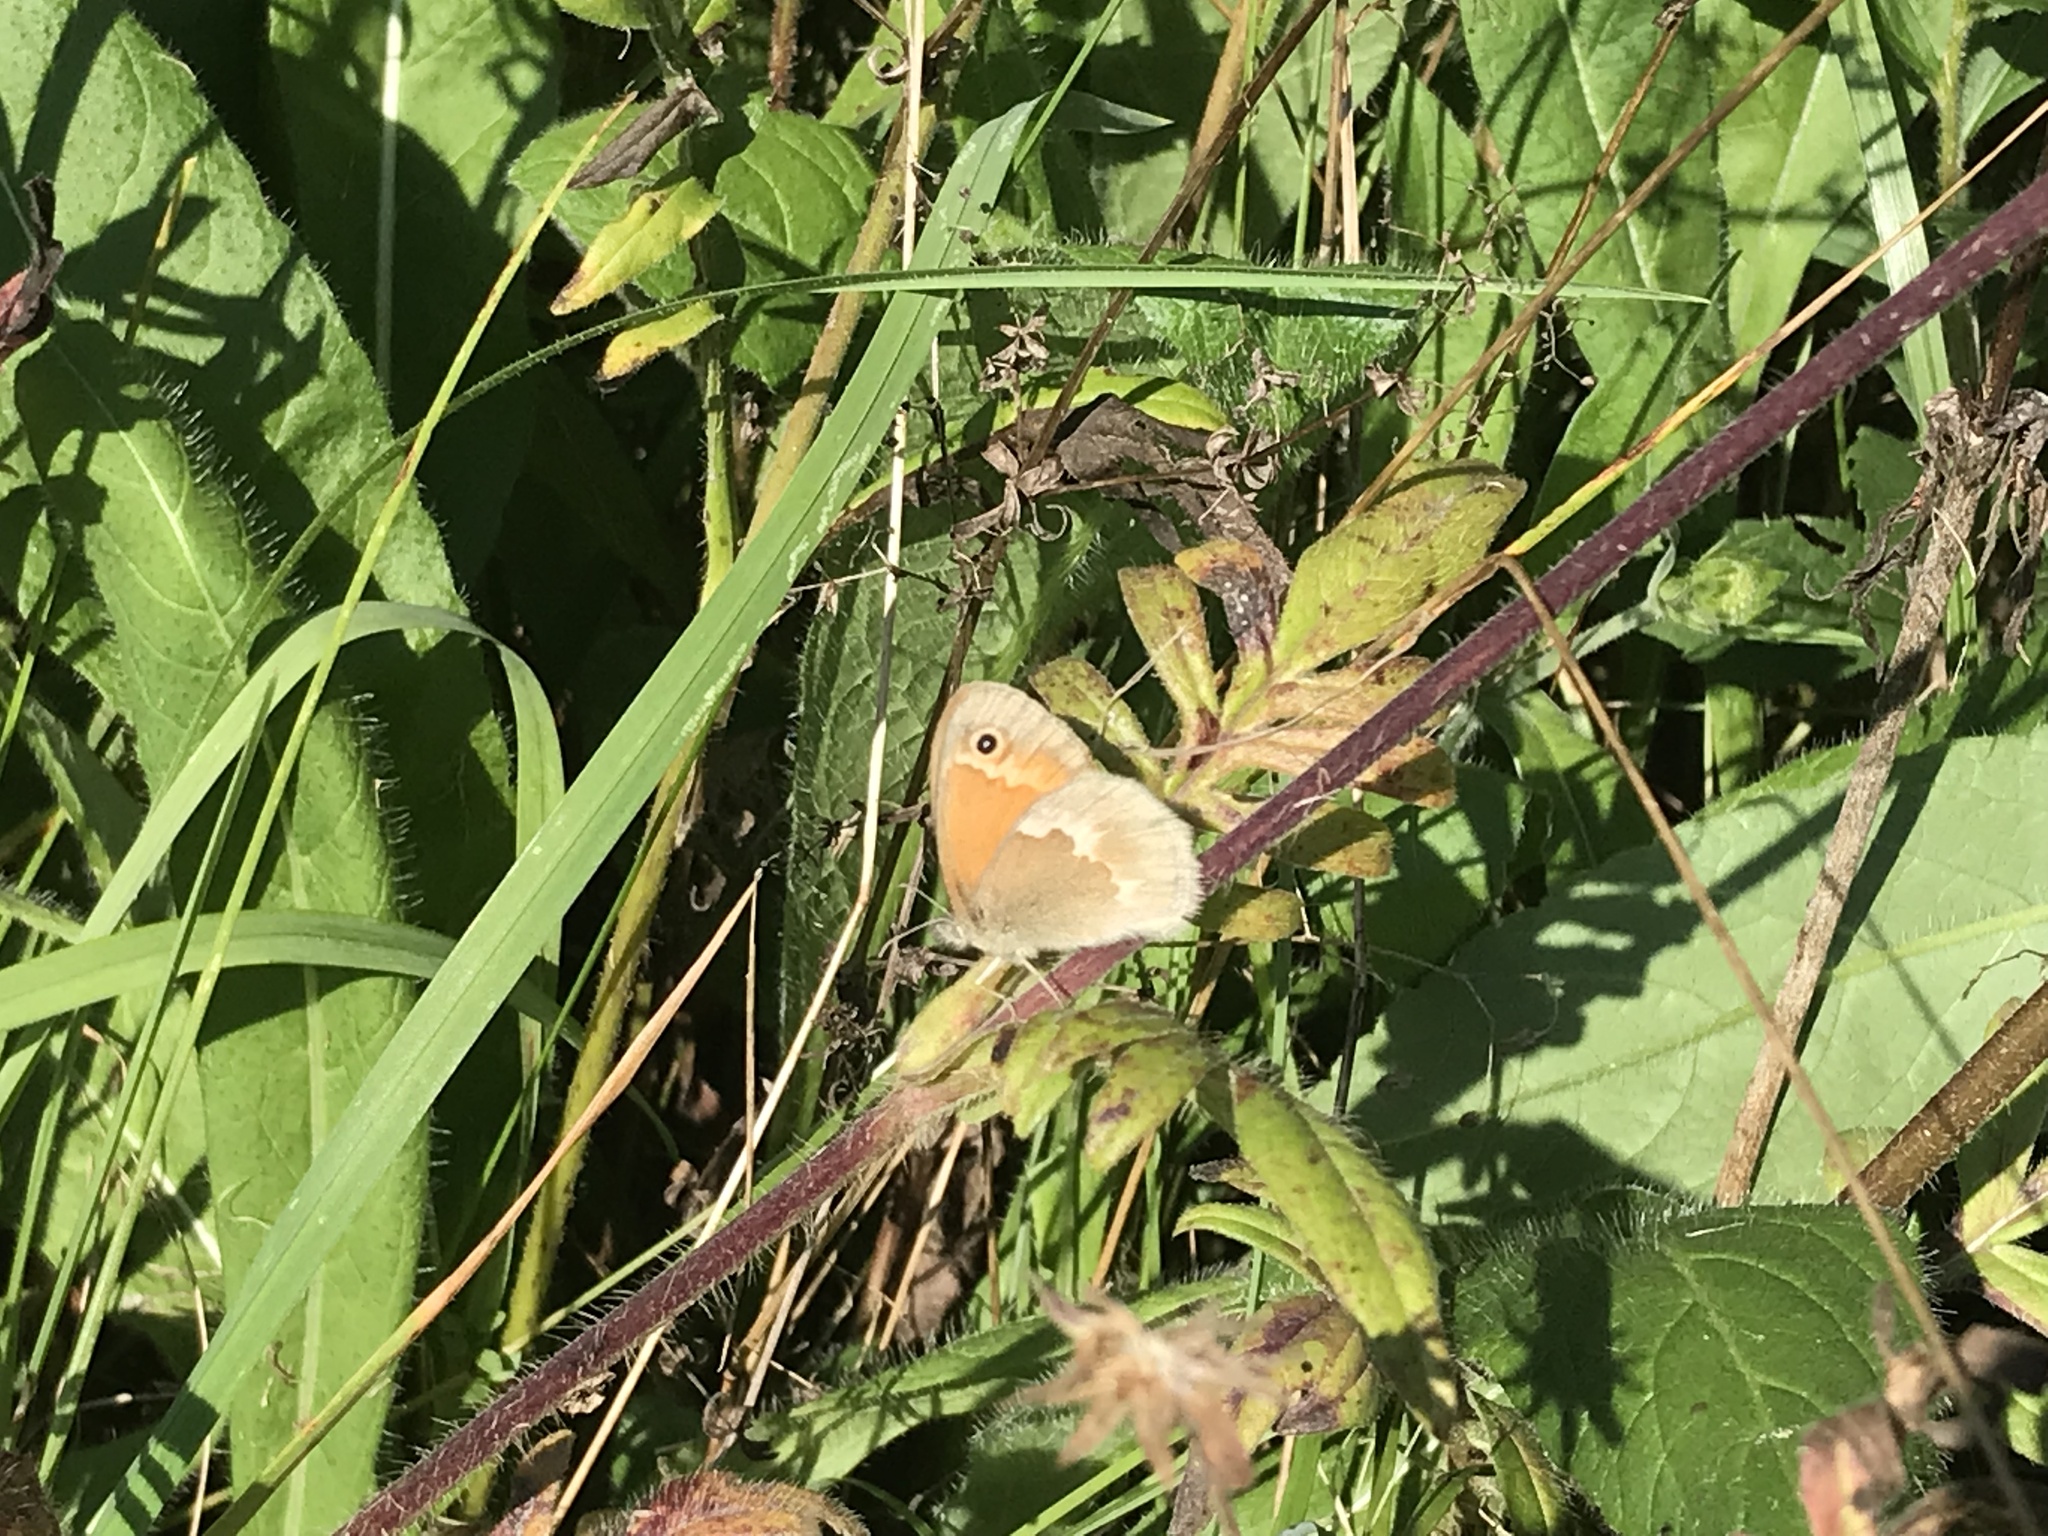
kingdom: Animalia
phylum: Arthropoda
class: Insecta
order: Lepidoptera
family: Nymphalidae
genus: Coenonympha
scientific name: Coenonympha california
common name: Common ringlet
